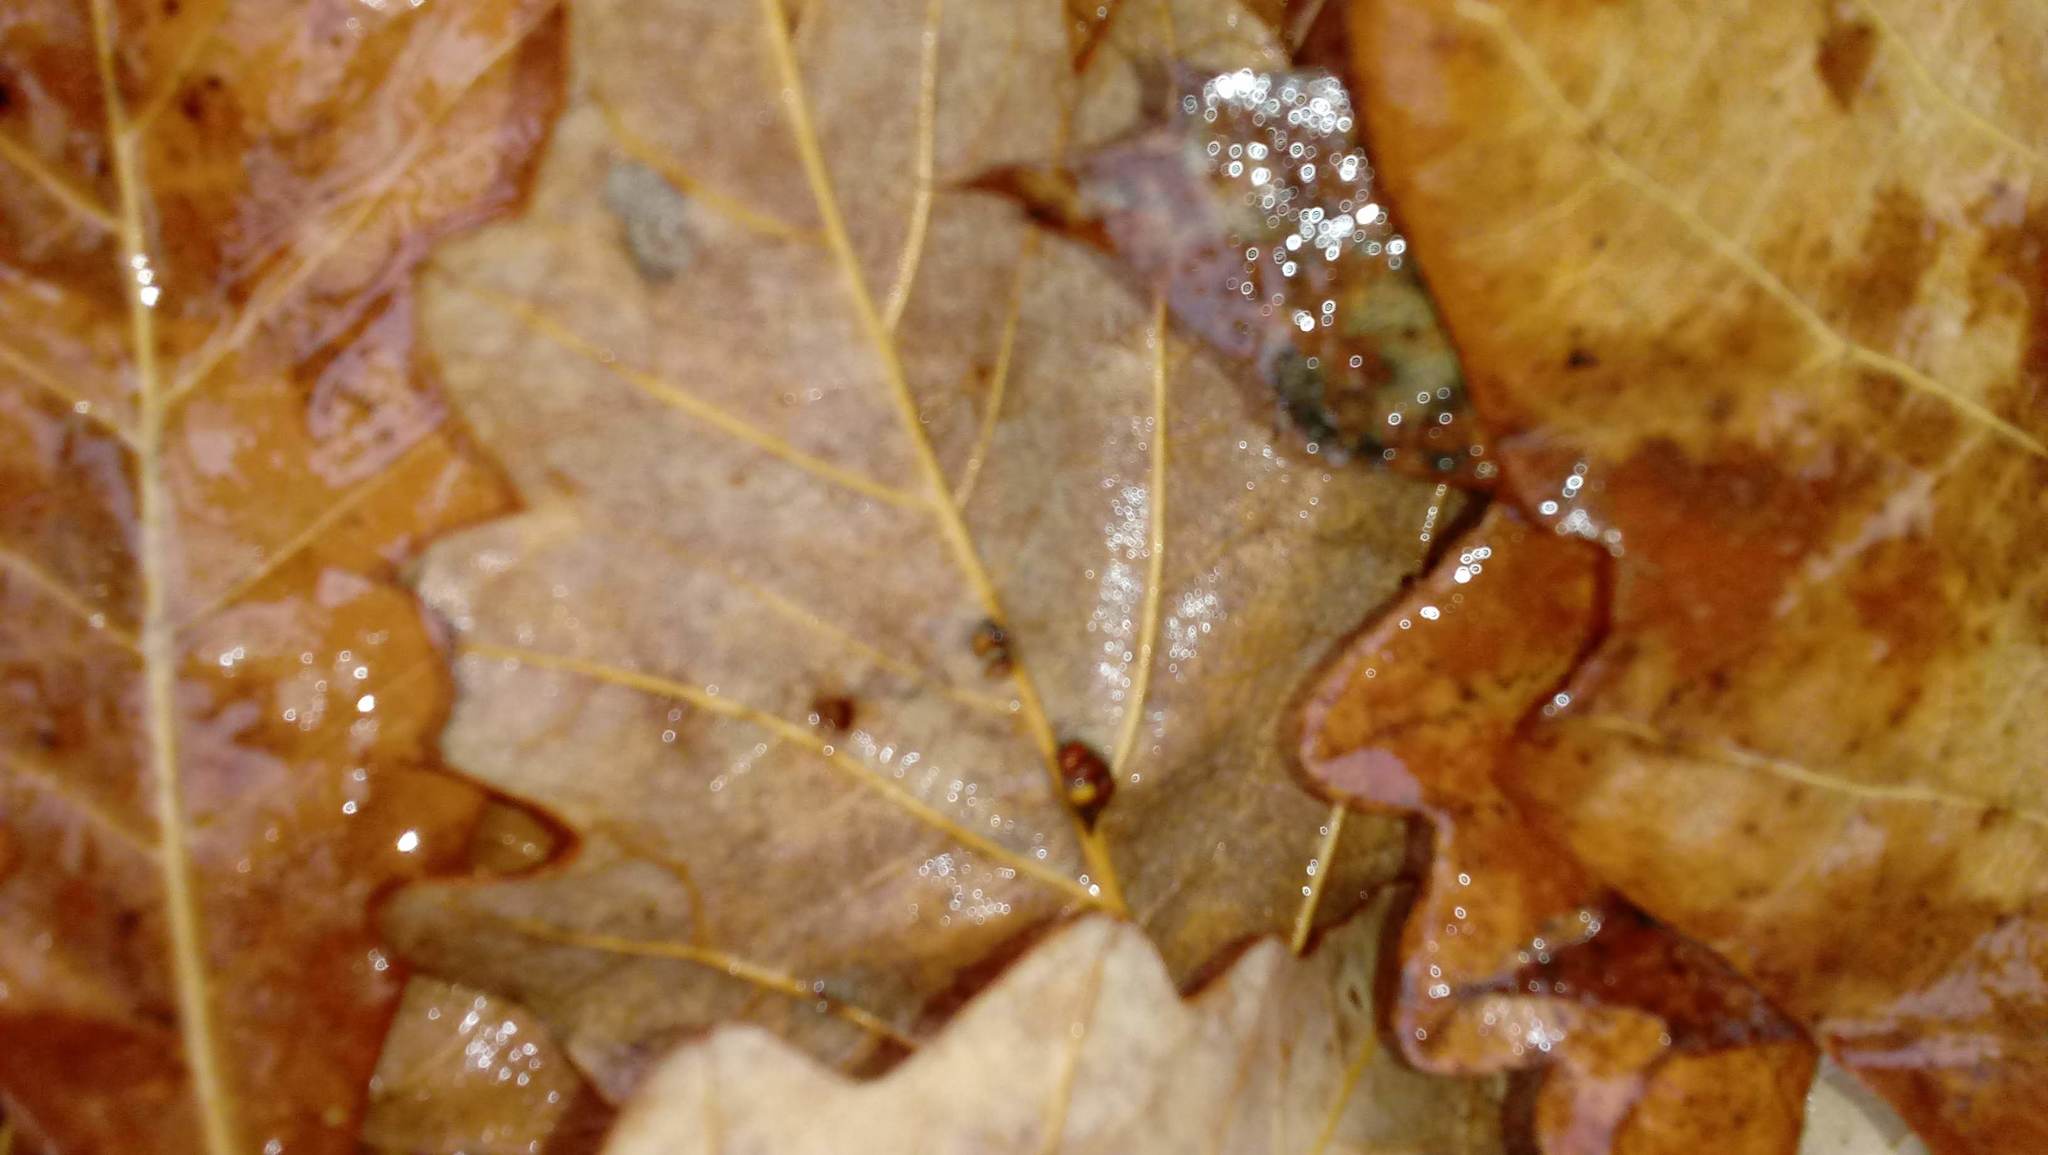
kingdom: Animalia
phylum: Arthropoda
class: Insecta
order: Hymenoptera
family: Cynipidae
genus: Andricus
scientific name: Andricus Druon ignotum
